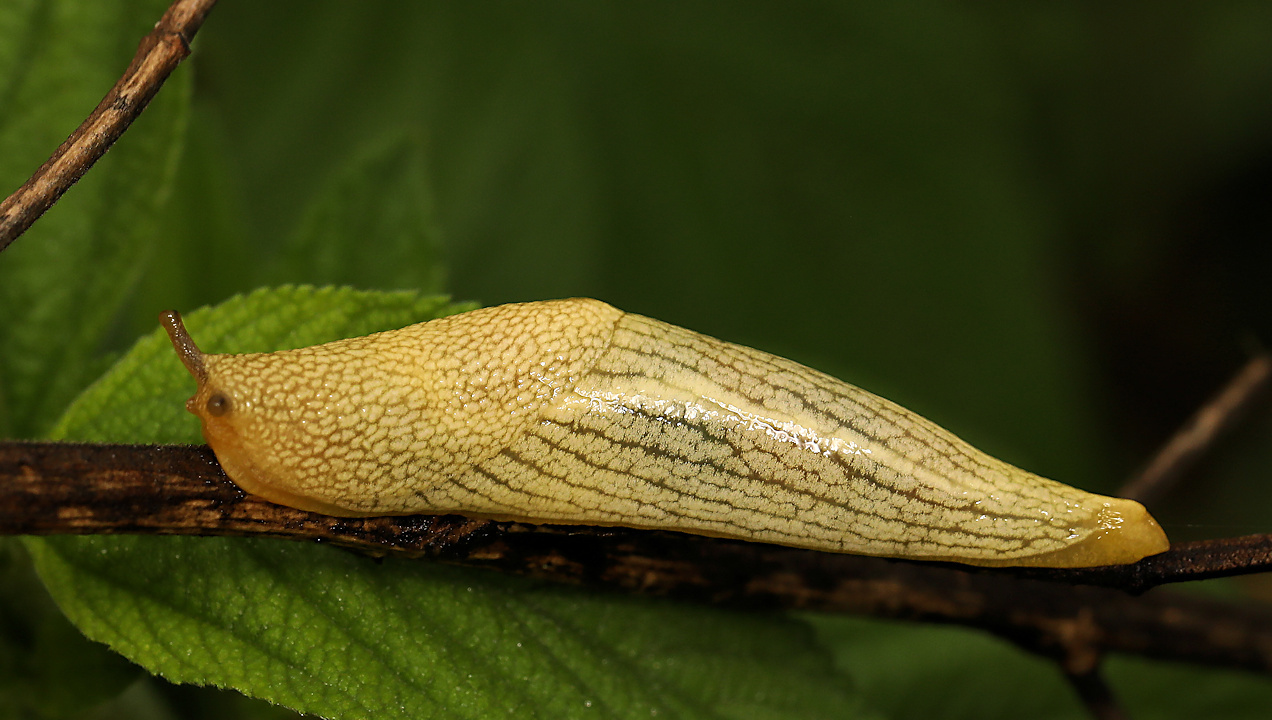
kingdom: Animalia
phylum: Mollusca
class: Gastropoda
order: Stylommatophora
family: Urocyclidae
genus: Elisolimax
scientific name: Elisolimax flavescens
